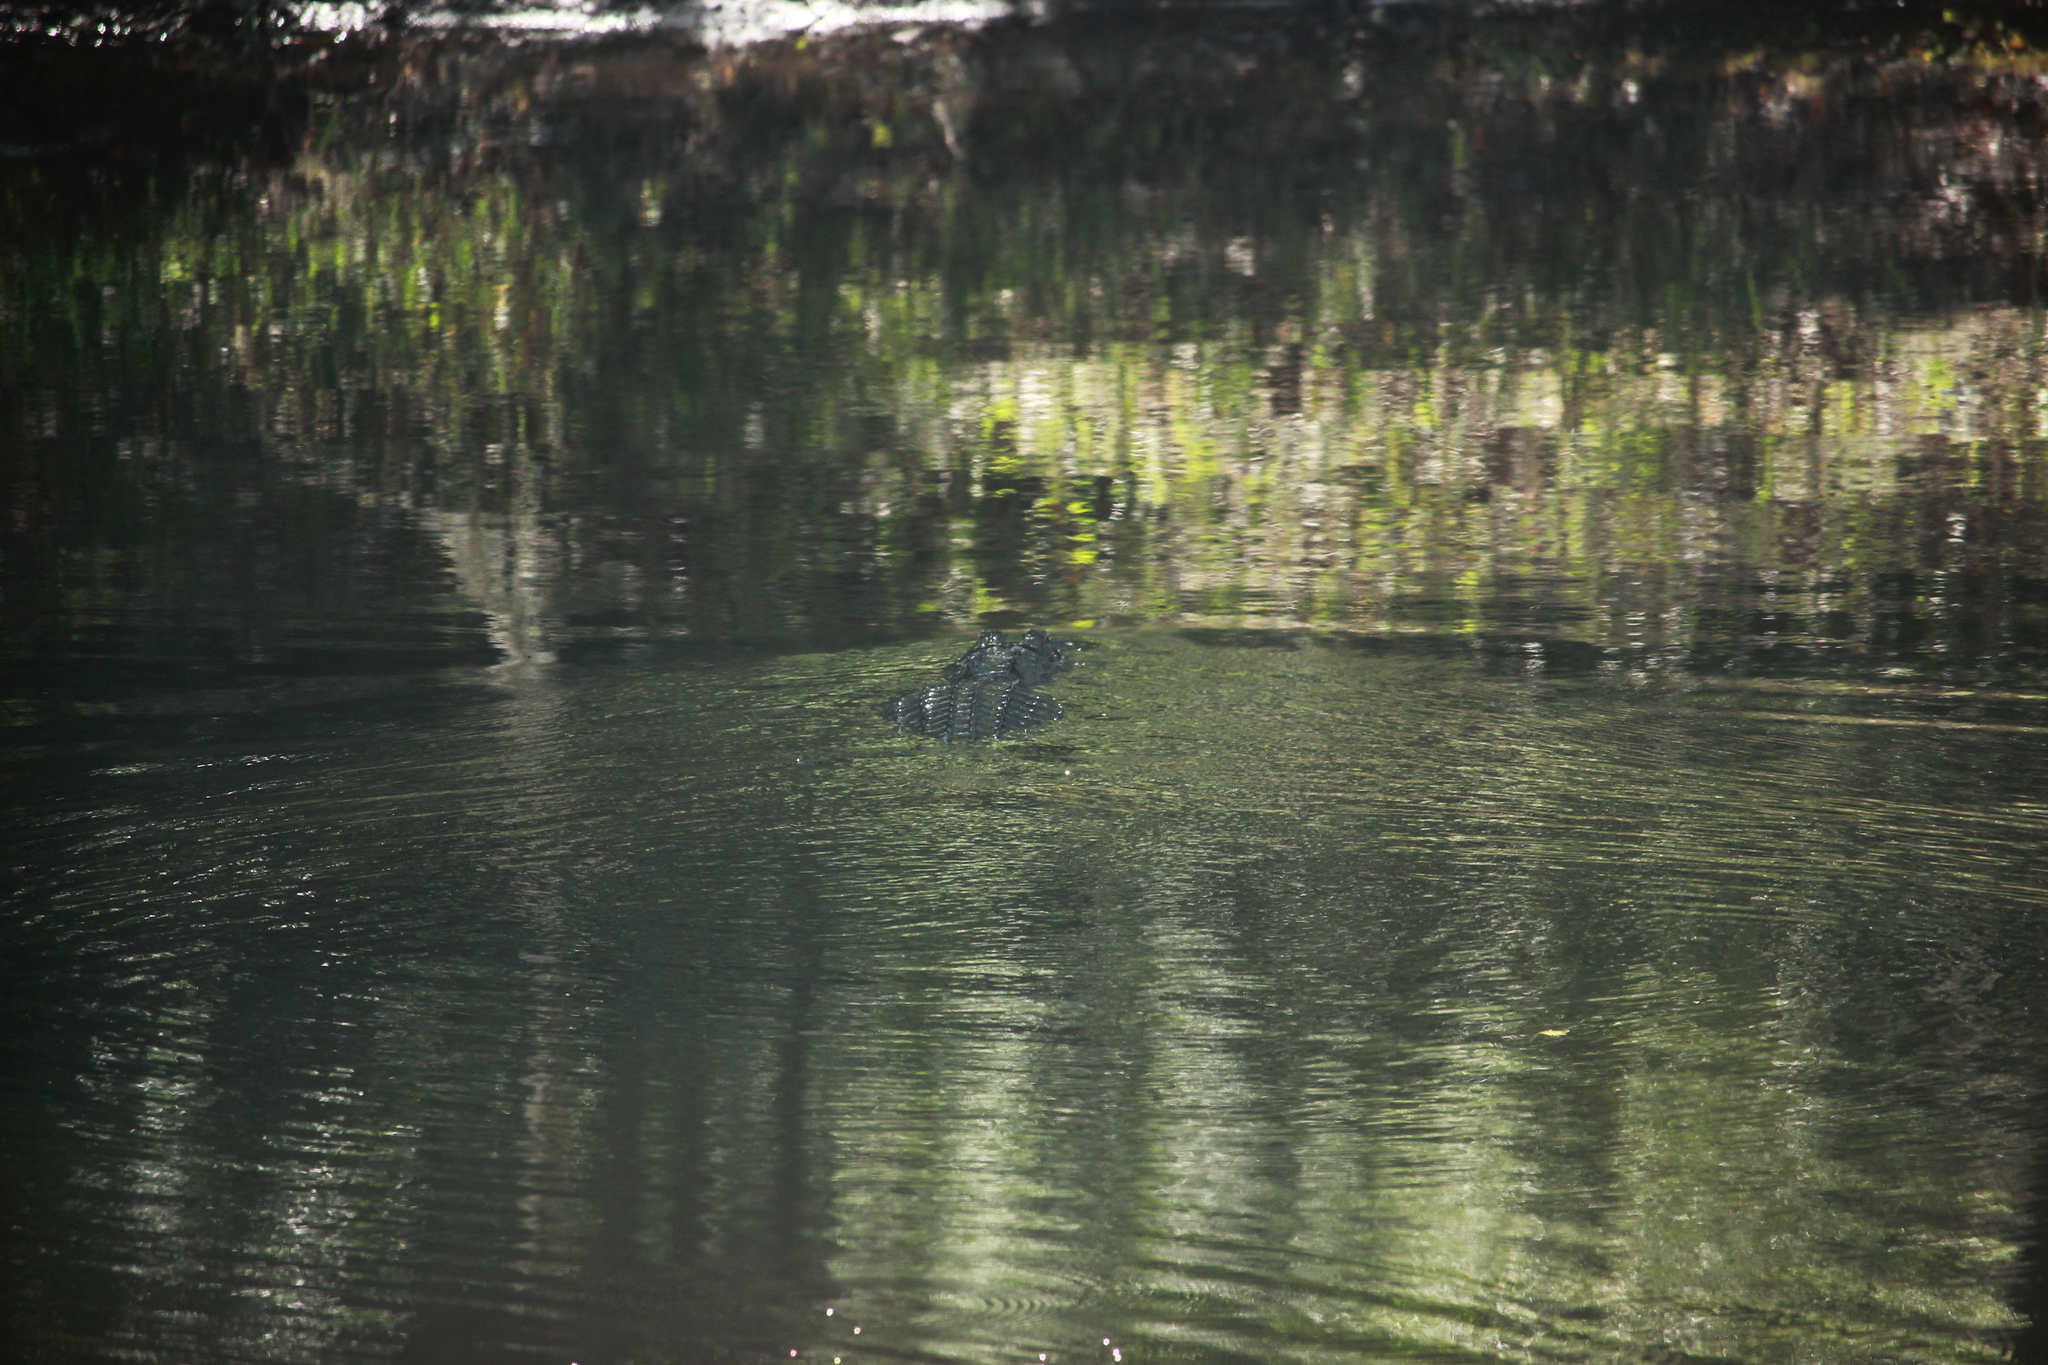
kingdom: Animalia
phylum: Chordata
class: Crocodylia
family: Alligatoridae
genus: Alligator
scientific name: Alligator mississippiensis
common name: American alligator
